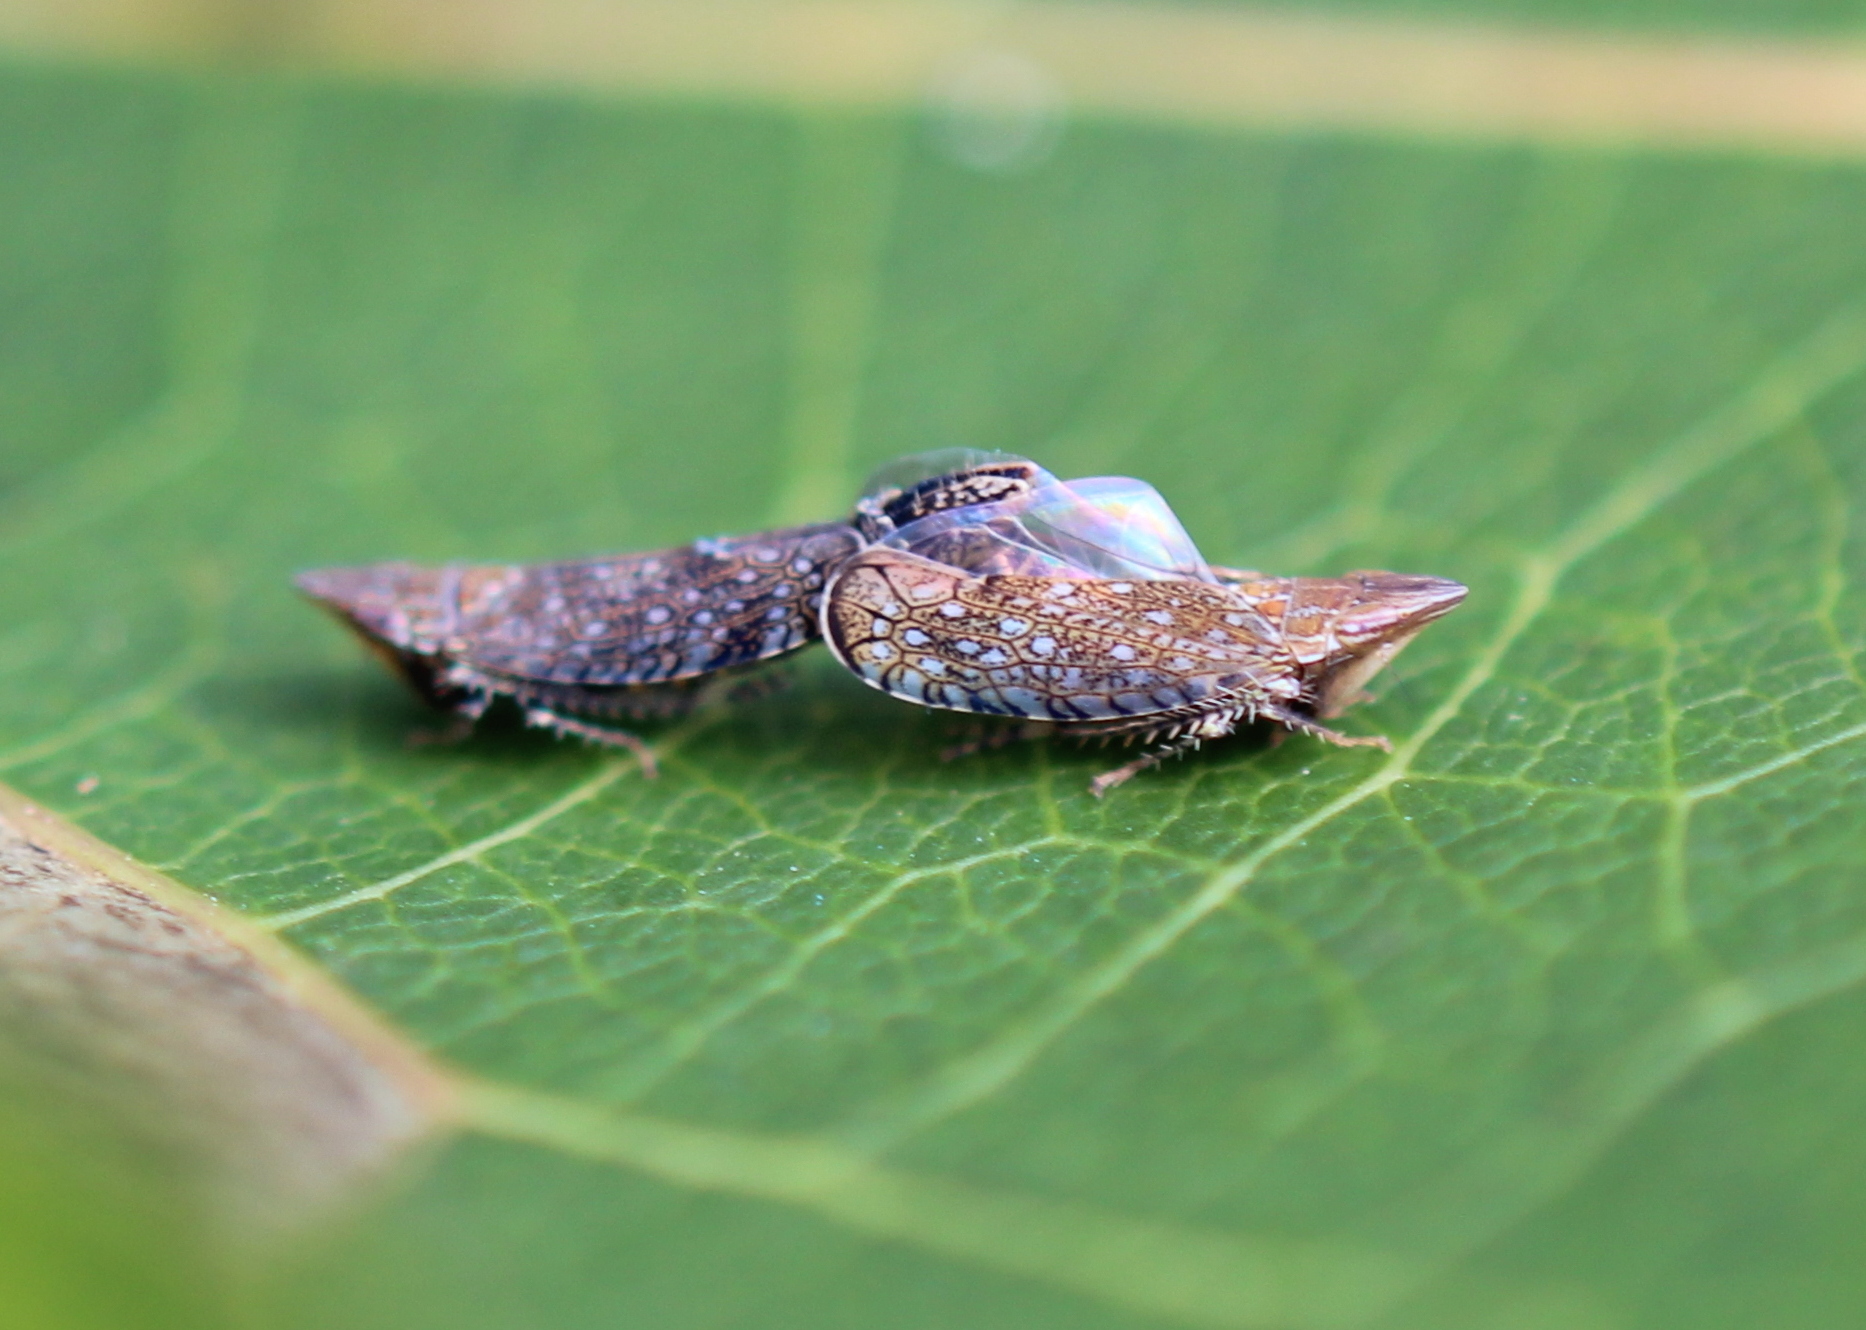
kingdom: Animalia
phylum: Arthropoda
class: Insecta
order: Hemiptera
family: Cicadellidae
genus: Scaphytopius
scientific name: Scaphytopius acutus
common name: The sharp-nosed leafhopper
